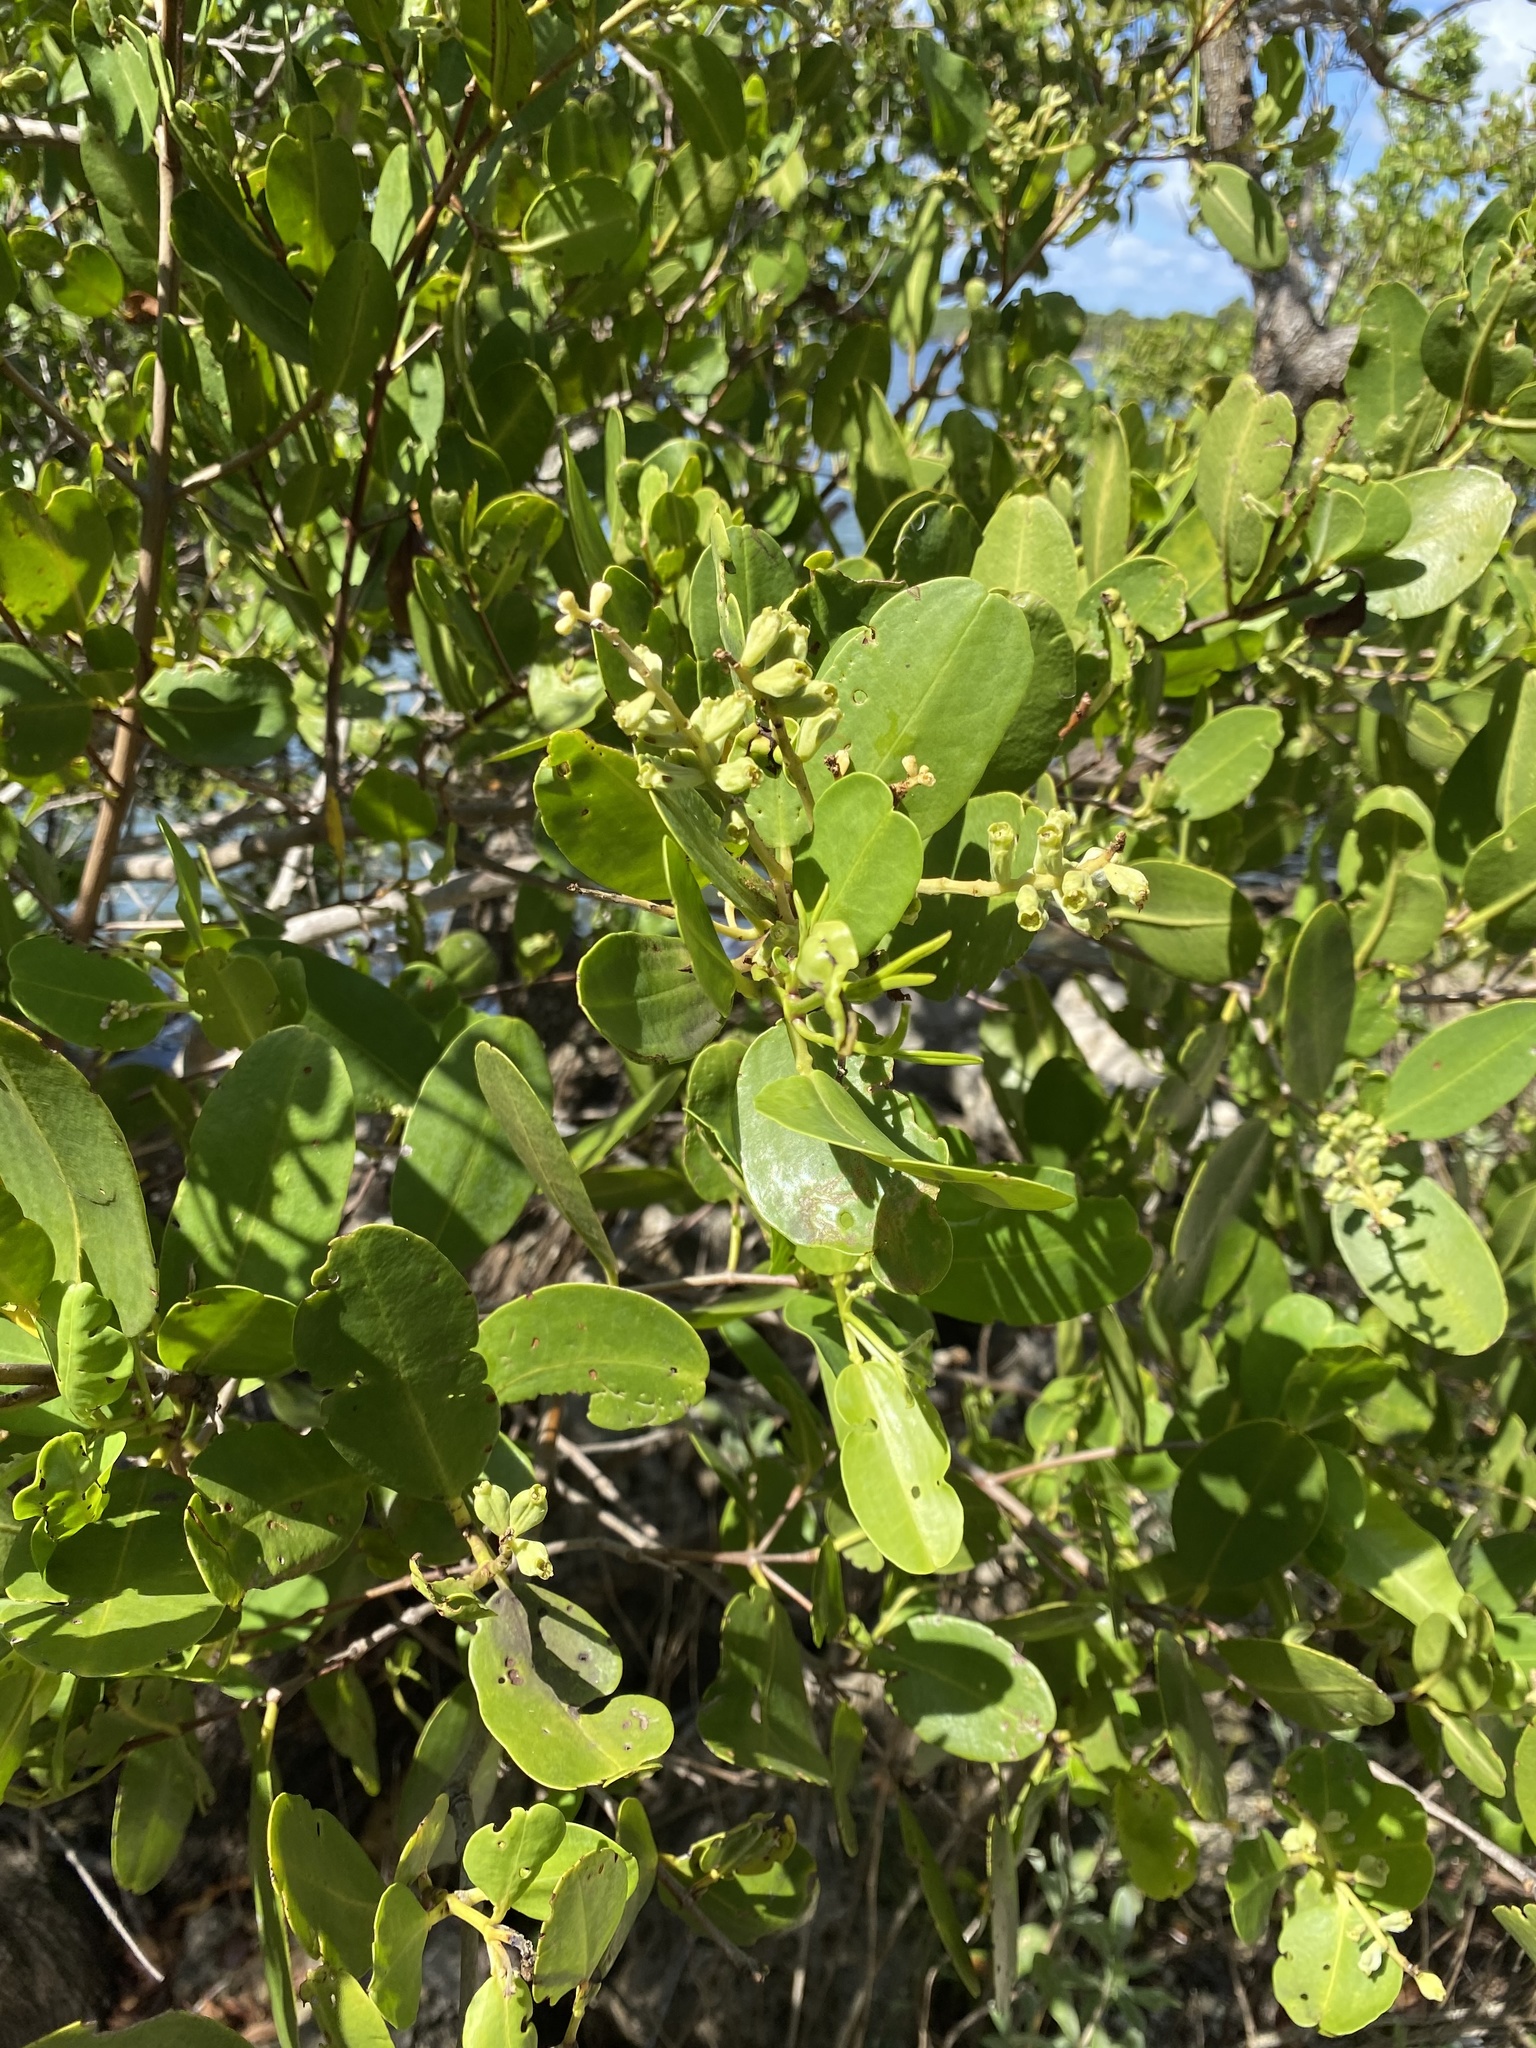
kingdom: Plantae
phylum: Tracheophyta
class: Magnoliopsida
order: Myrtales
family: Combretaceae
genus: Laguncularia
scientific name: Laguncularia racemosa
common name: White mangrove
